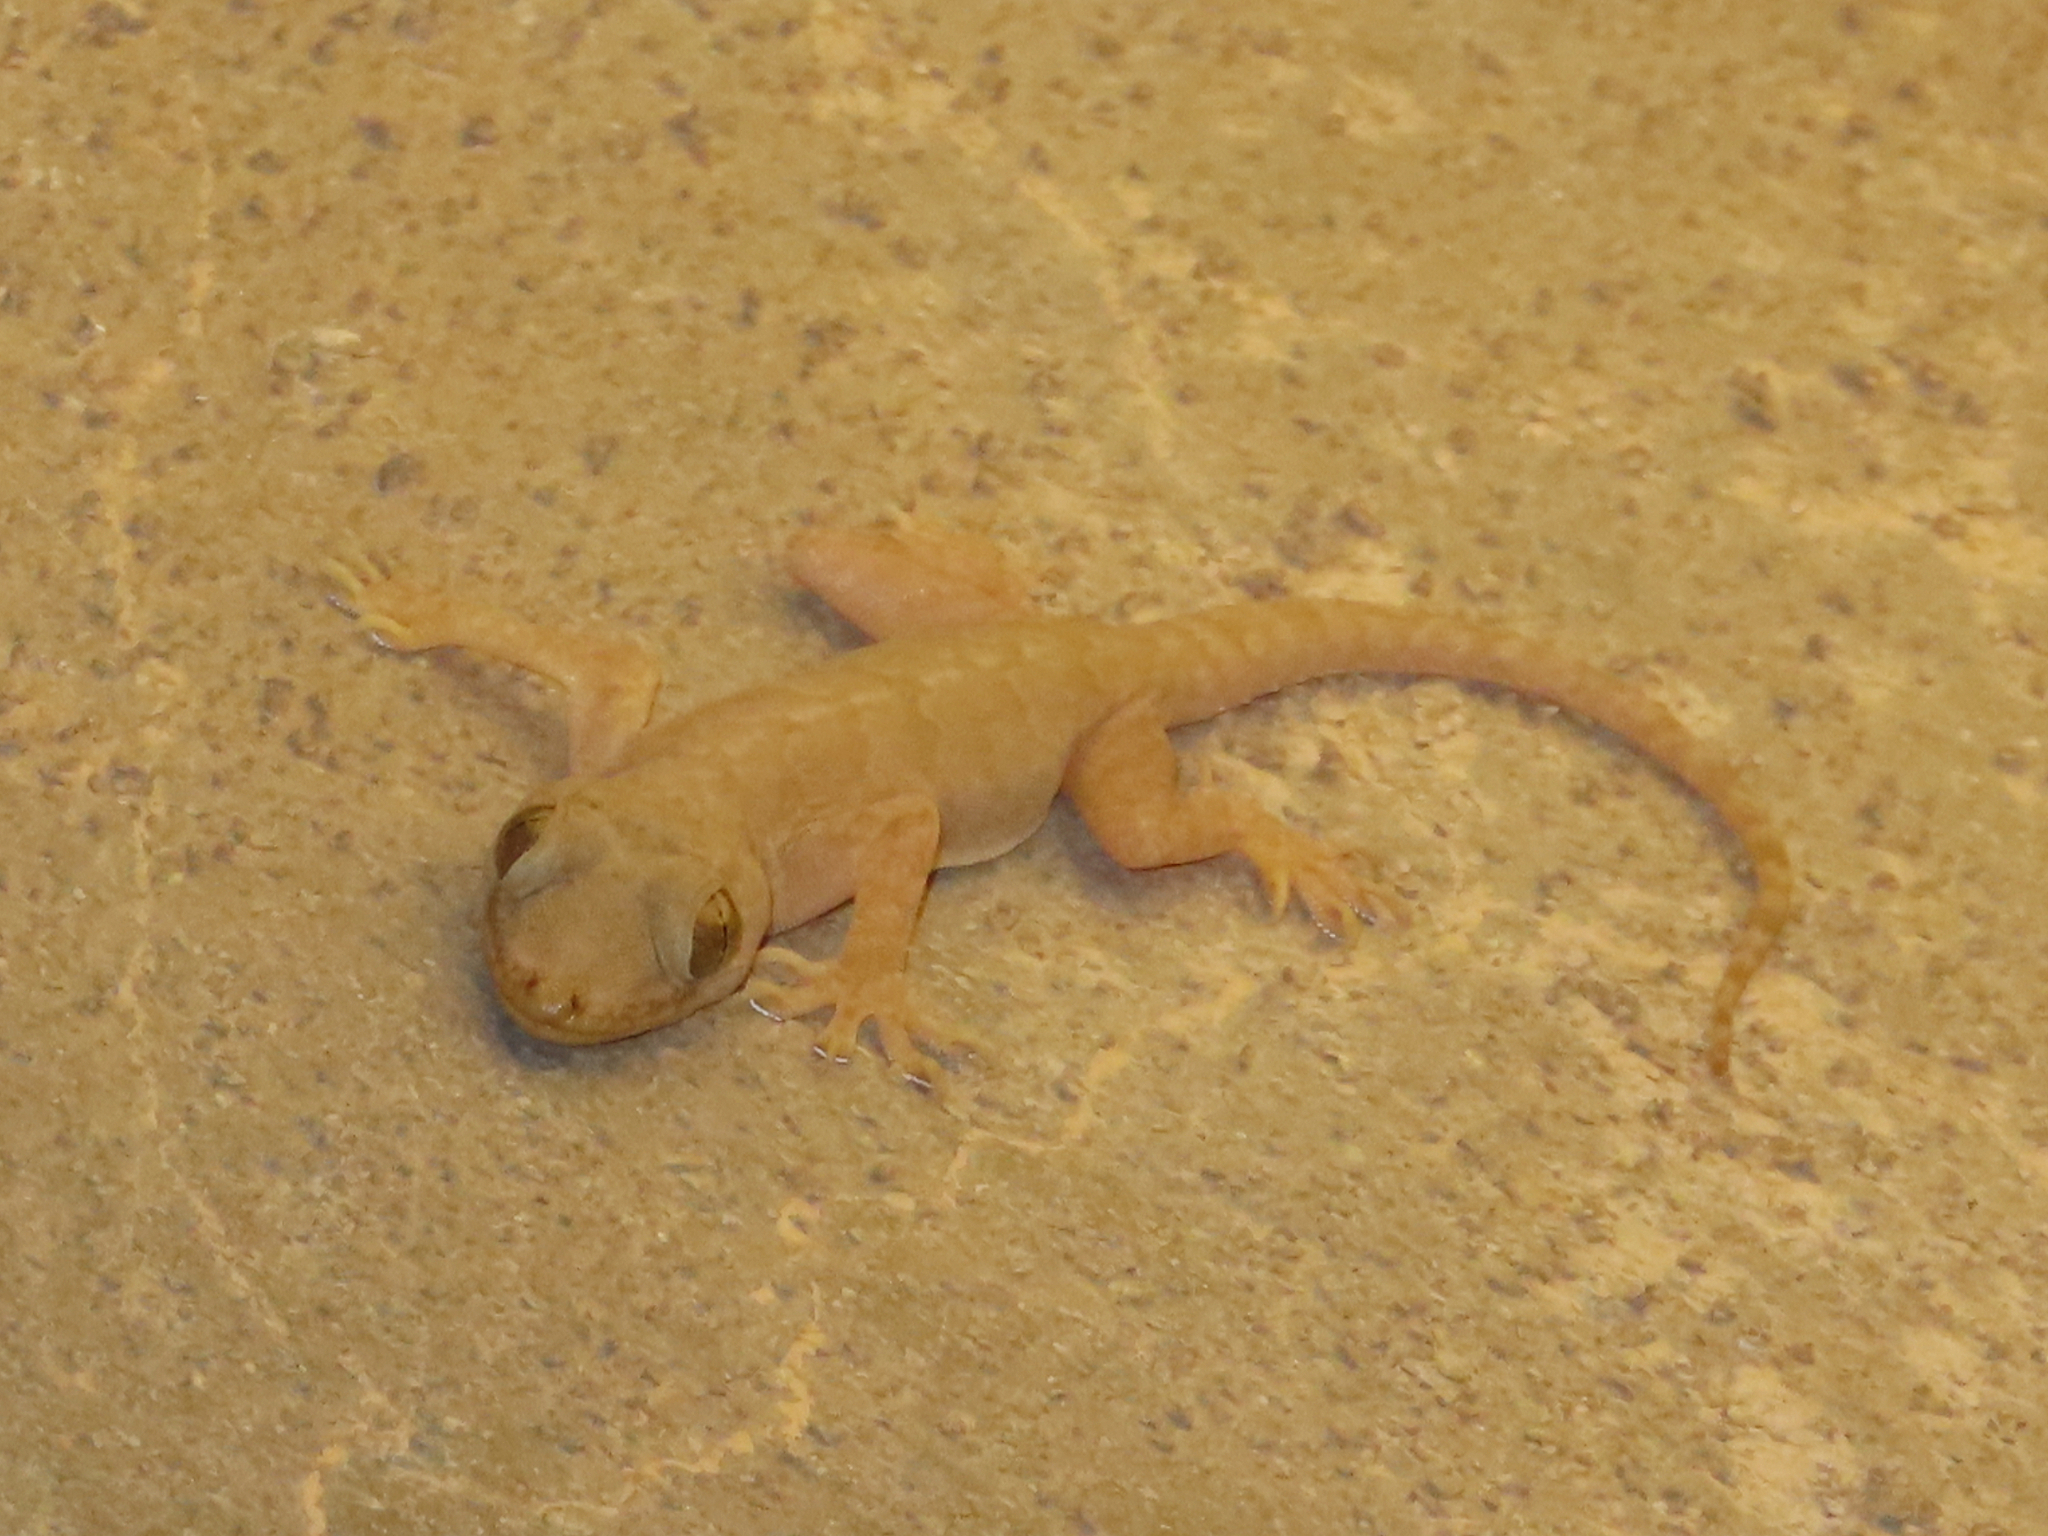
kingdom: Animalia
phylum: Chordata
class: Squamata
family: Gekkonidae
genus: Hemidactylus
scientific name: Hemidactylus flaviviridis
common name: Northern house gecko
